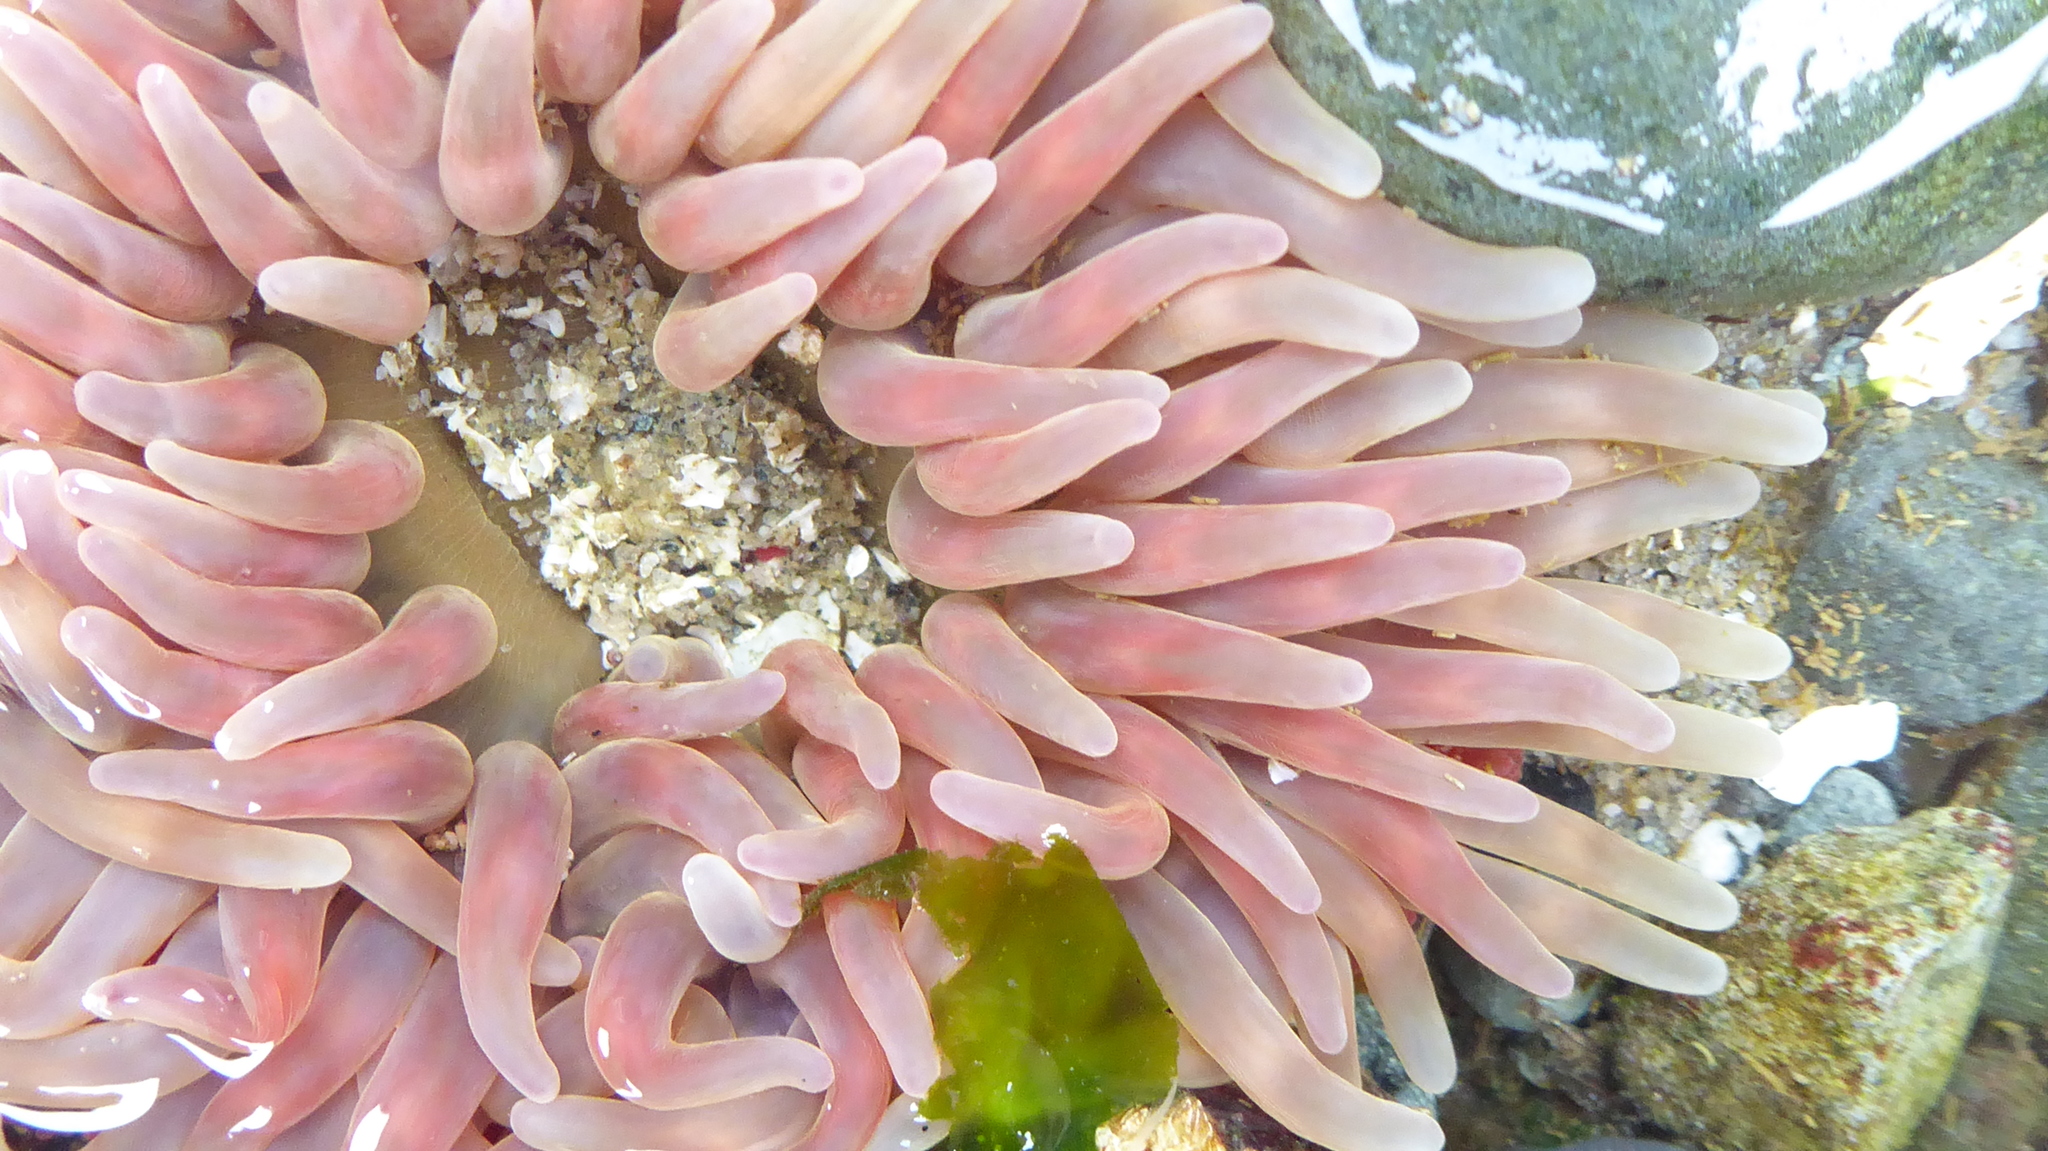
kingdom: Animalia
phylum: Cnidaria
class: Anthozoa
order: Actiniaria
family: Actiniidae
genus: Urticina
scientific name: Urticina clandestina
